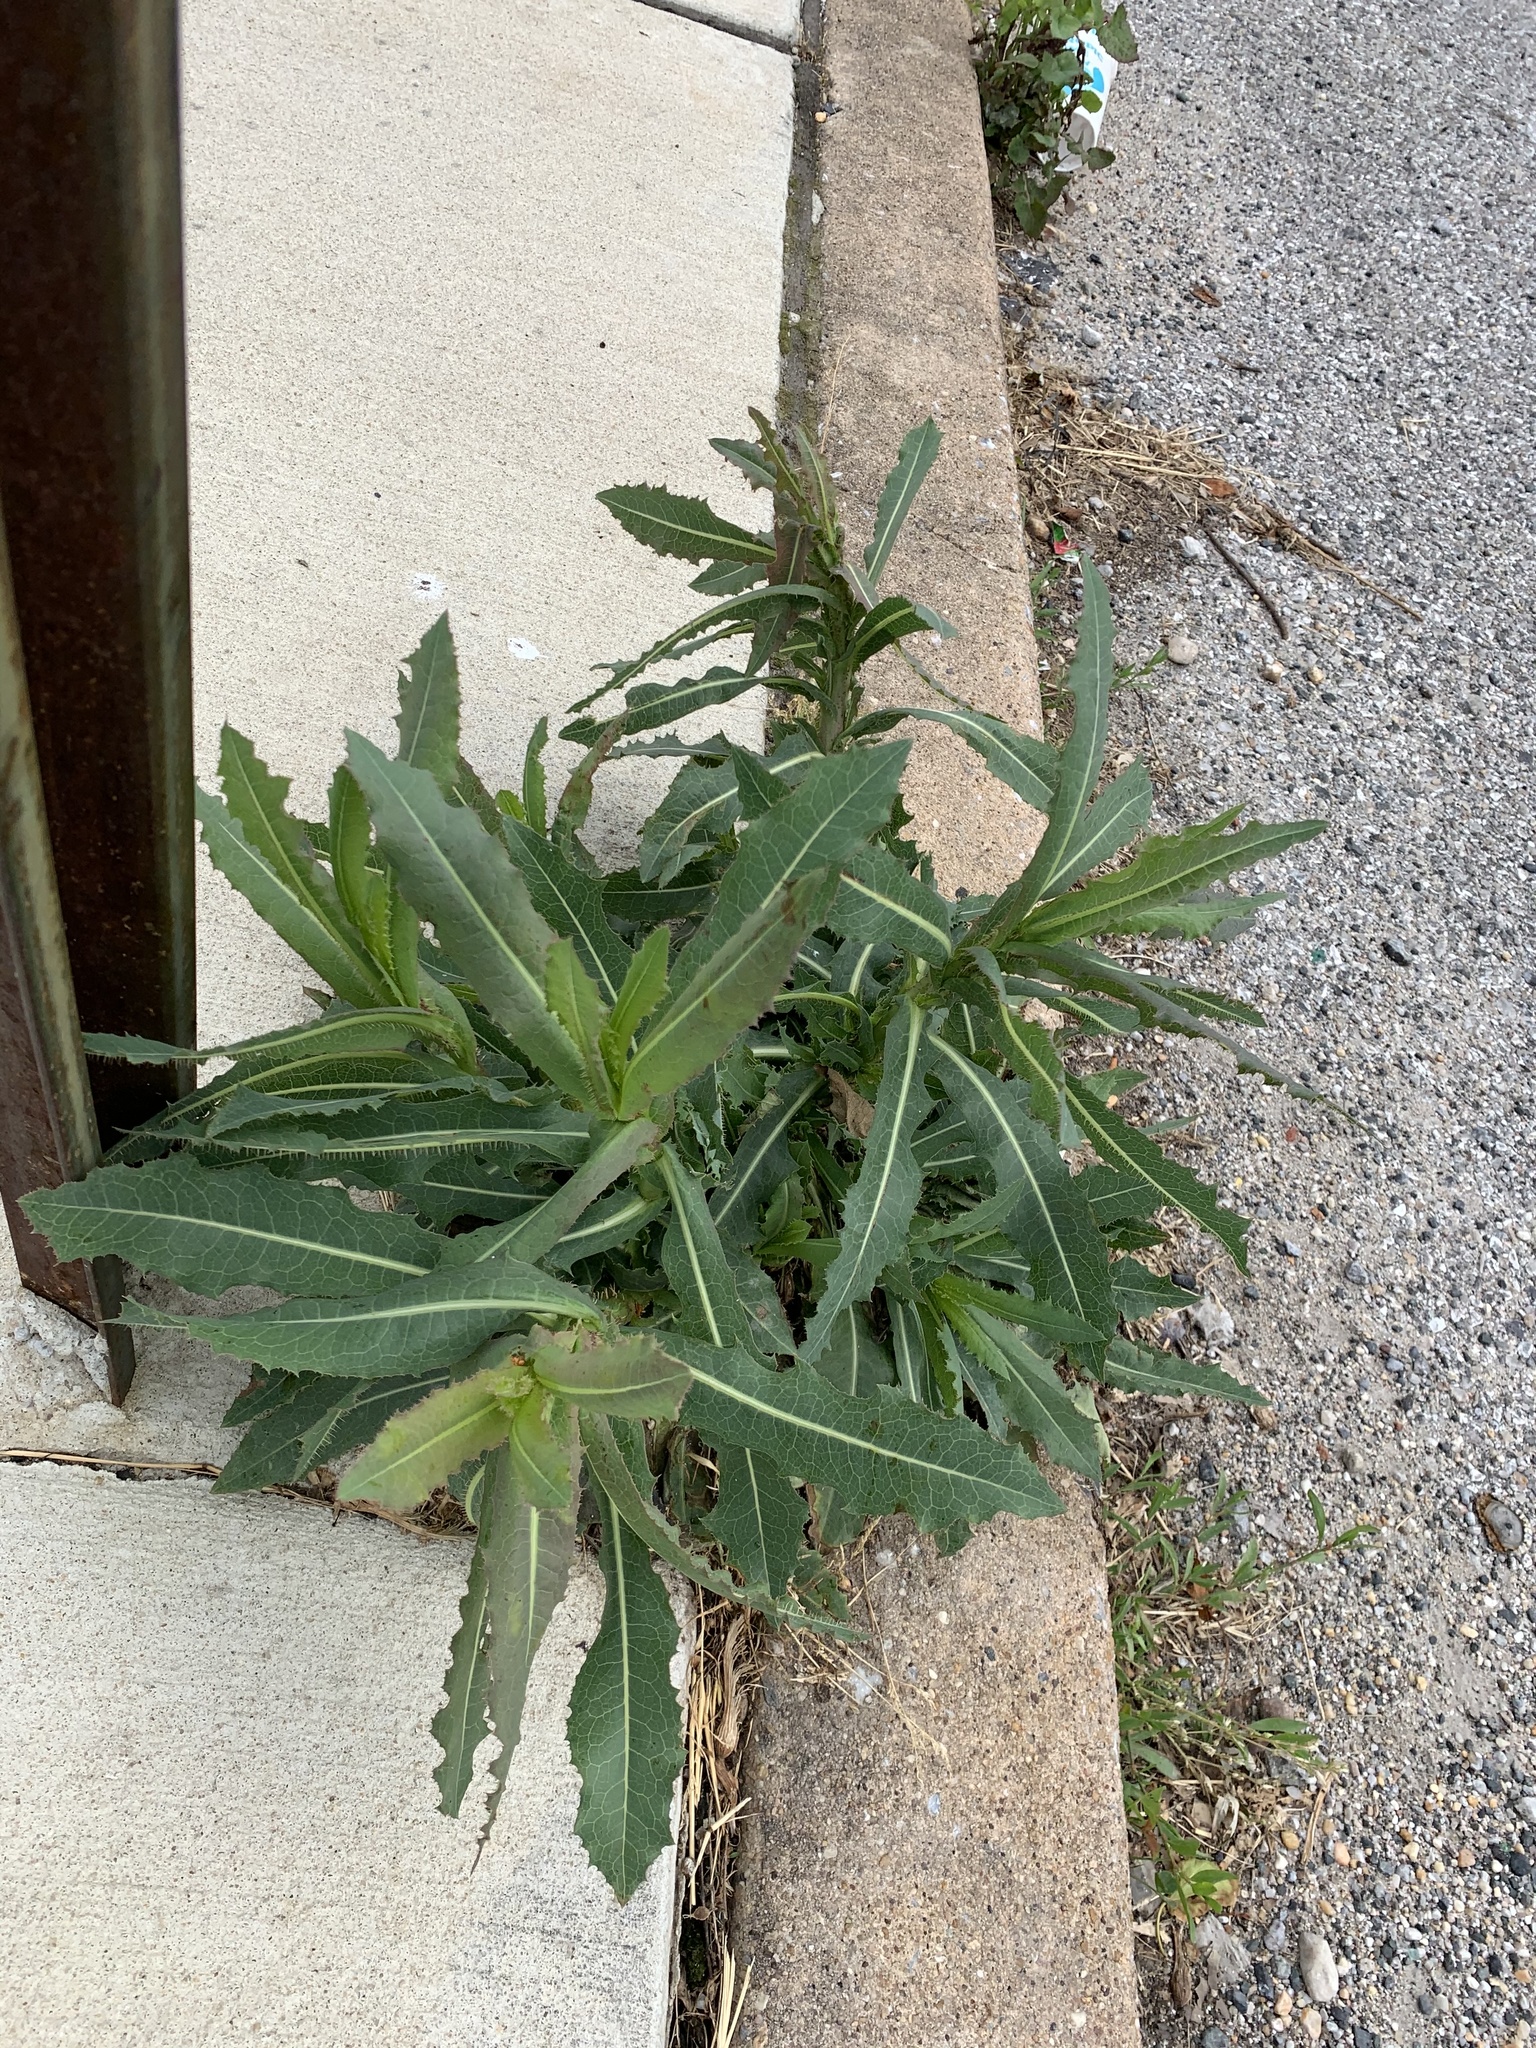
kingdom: Plantae
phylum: Tracheophyta
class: Magnoliopsida
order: Asterales
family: Asteraceae
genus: Lactuca
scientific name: Lactuca serriola
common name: Prickly lettuce
